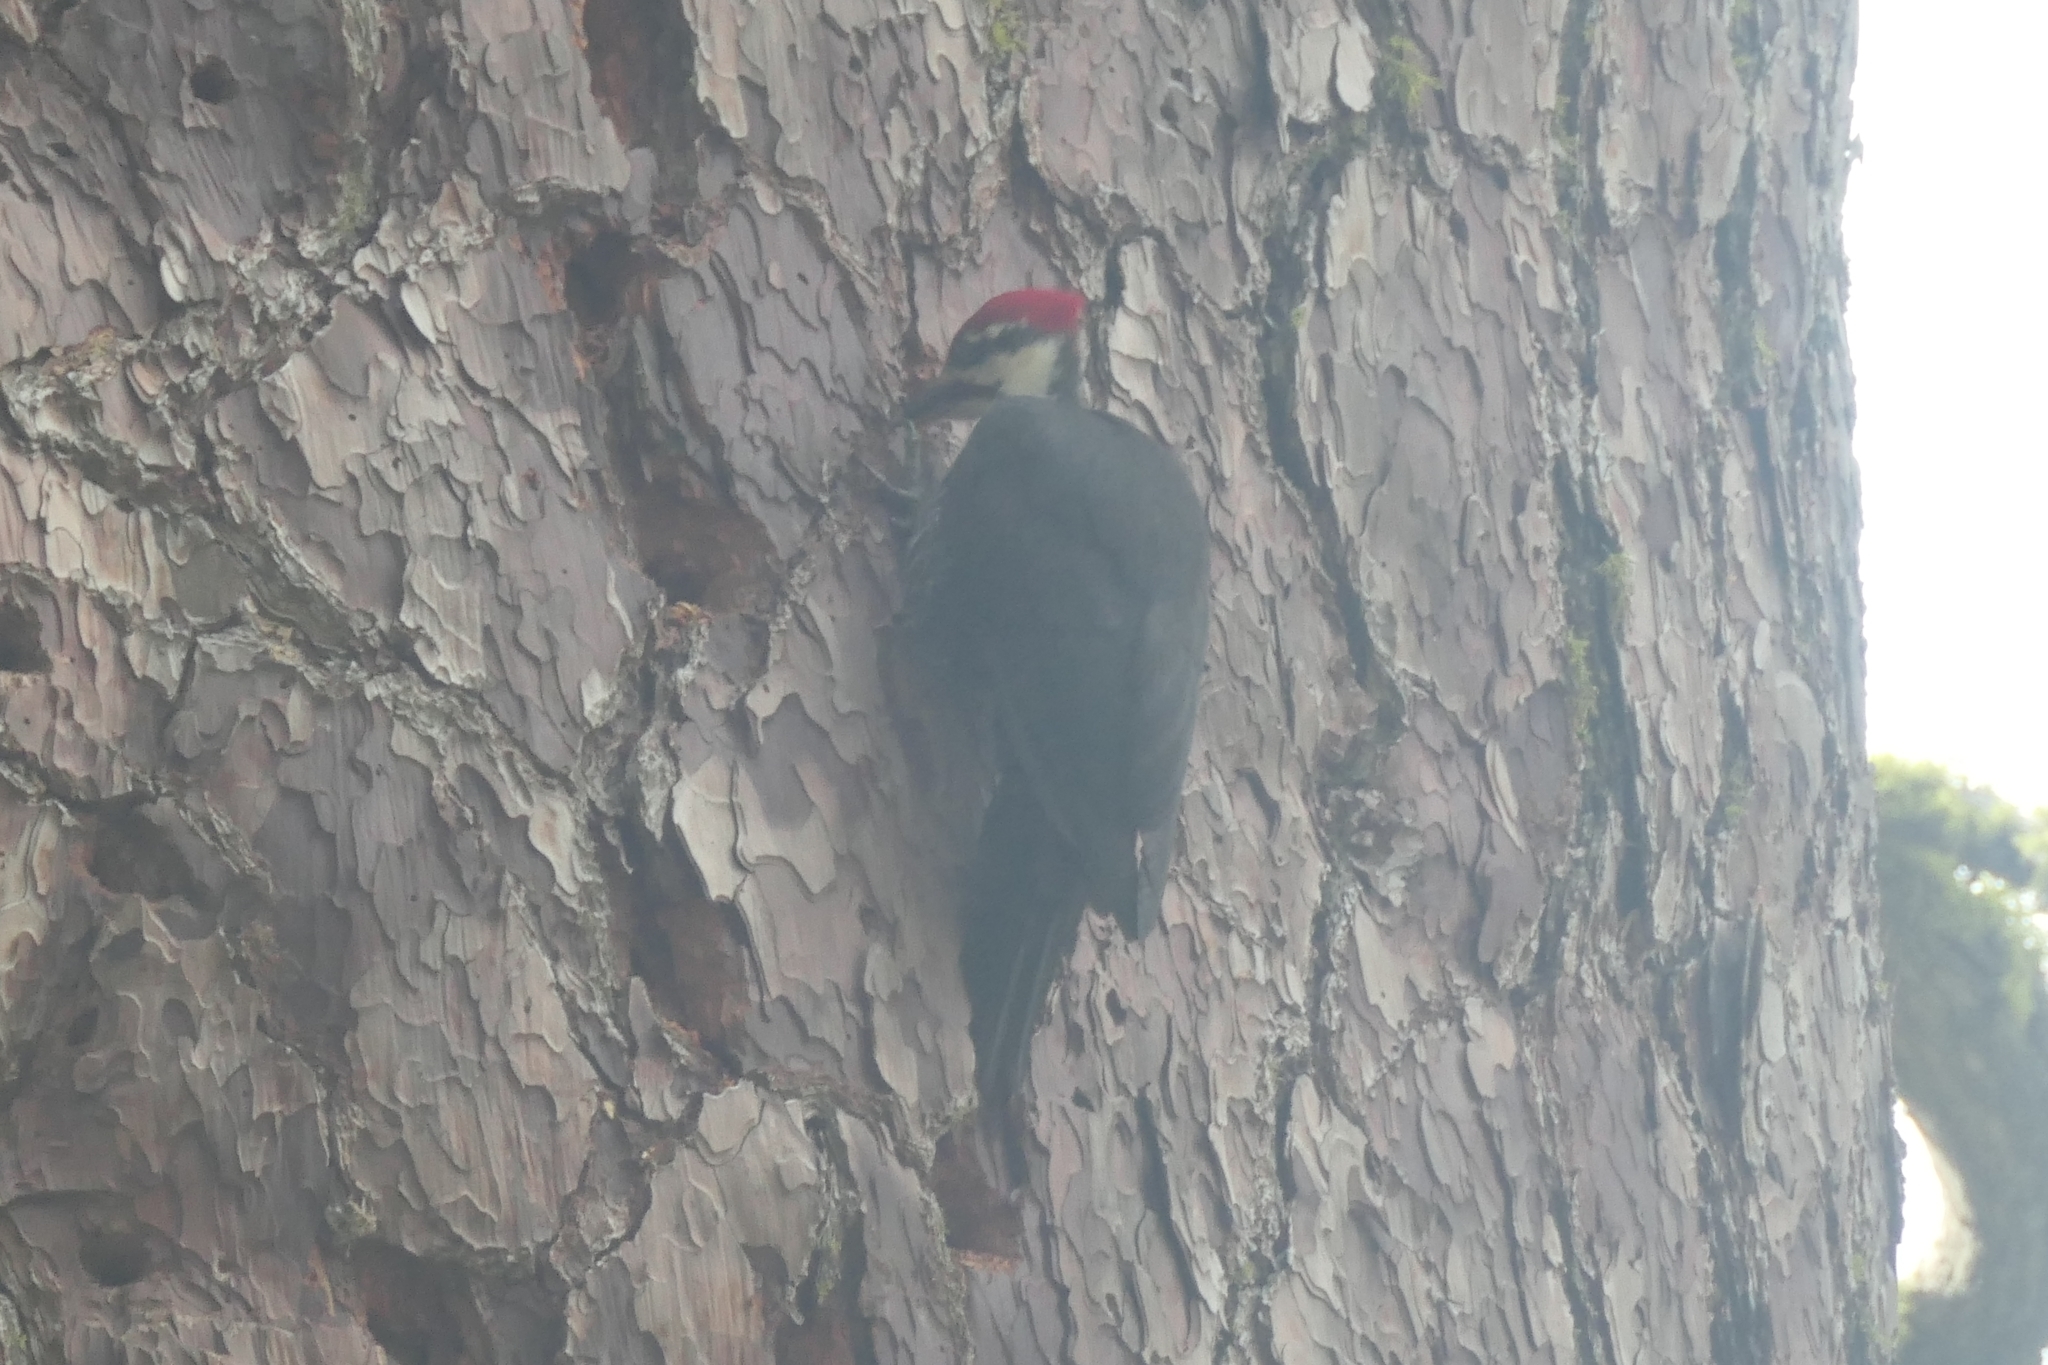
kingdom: Animalia
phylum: Chordata
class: Aves
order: Piciformes
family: Picidae
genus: Dryocopus
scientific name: Dryocopus pileatus
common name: Pileated woodpecker
